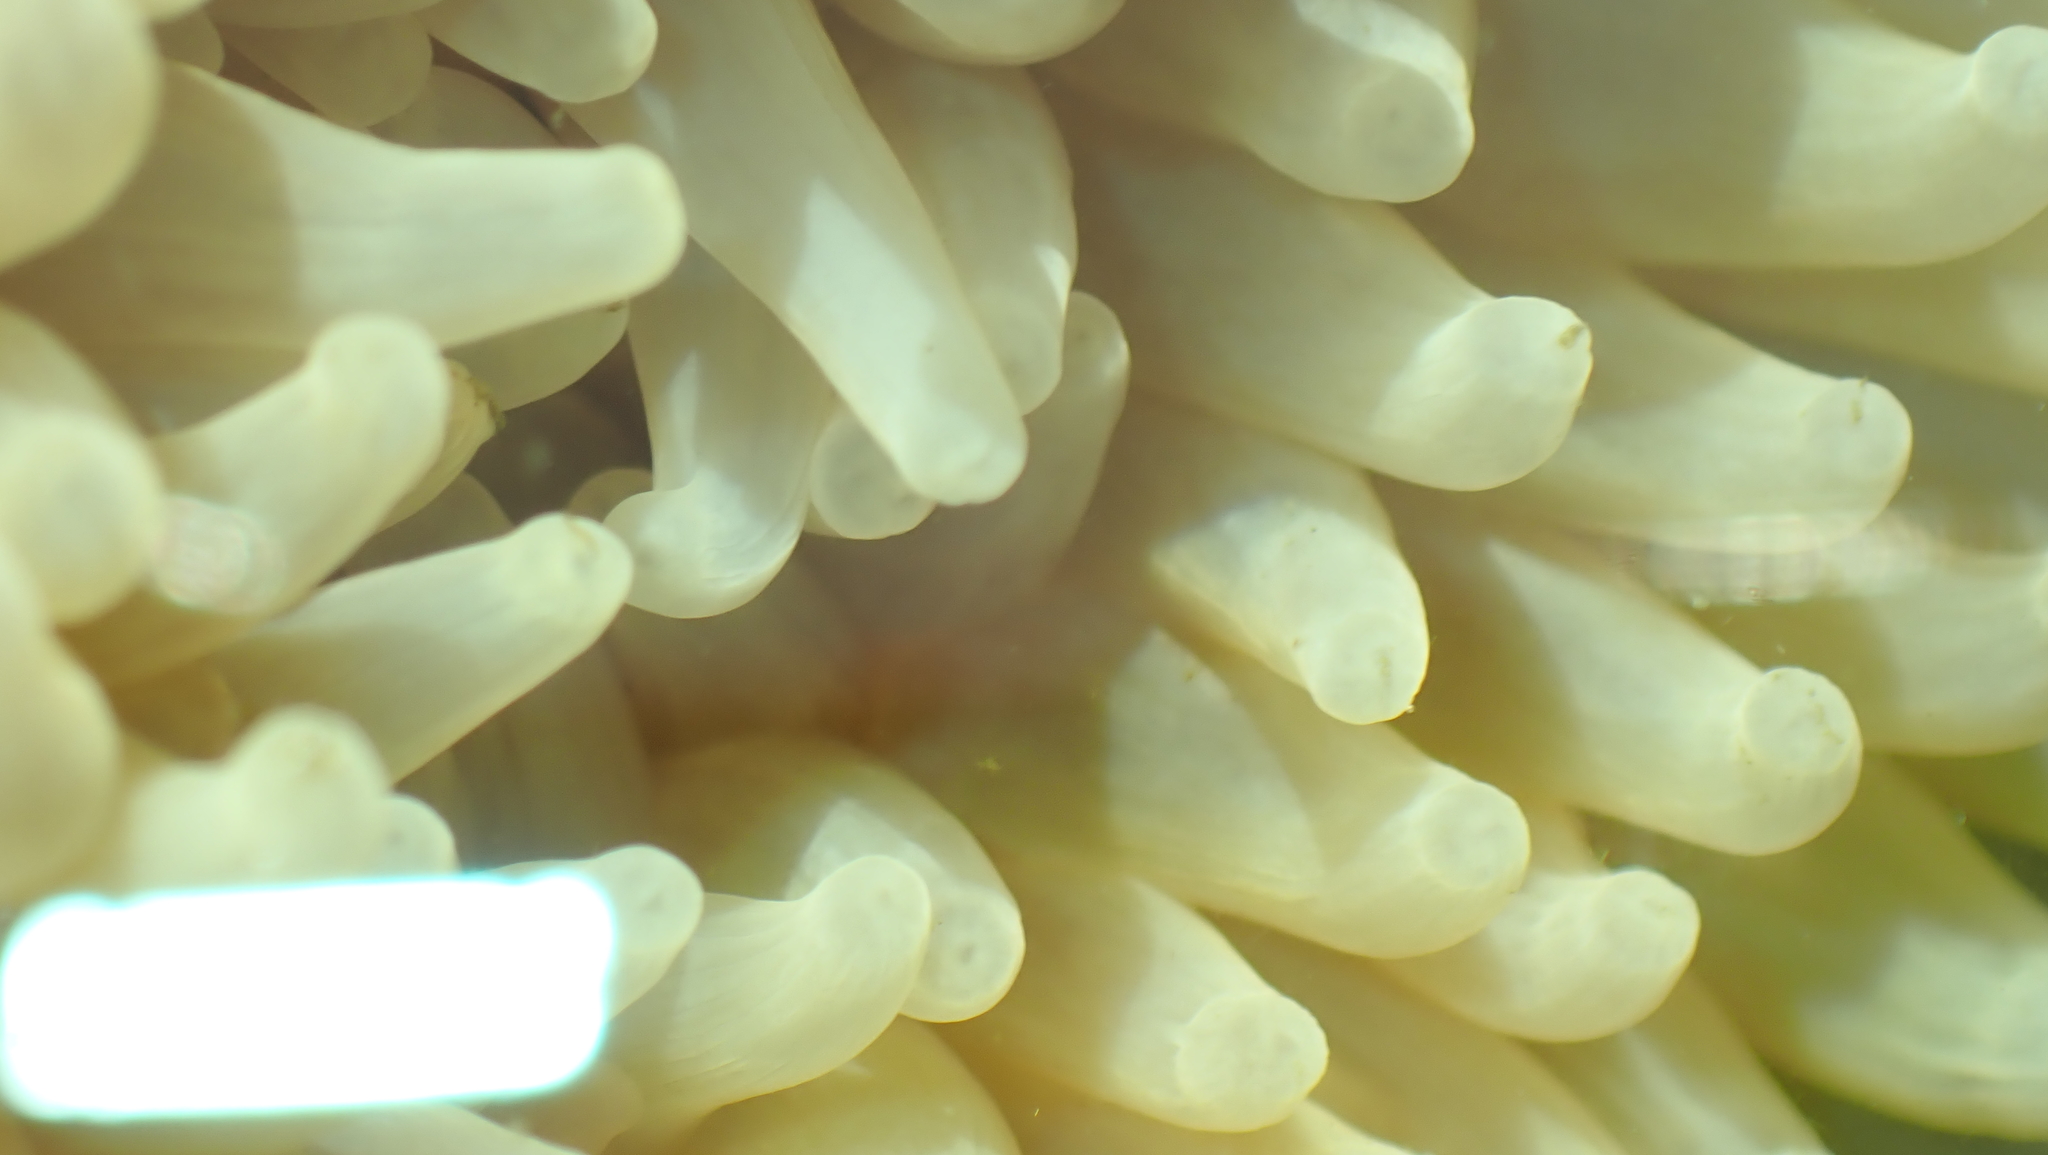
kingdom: Animalia
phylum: Cnidaria
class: Anthozoa
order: Actiniaria
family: Actiniidae
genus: Urticina
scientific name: Urticina grebelnyi
